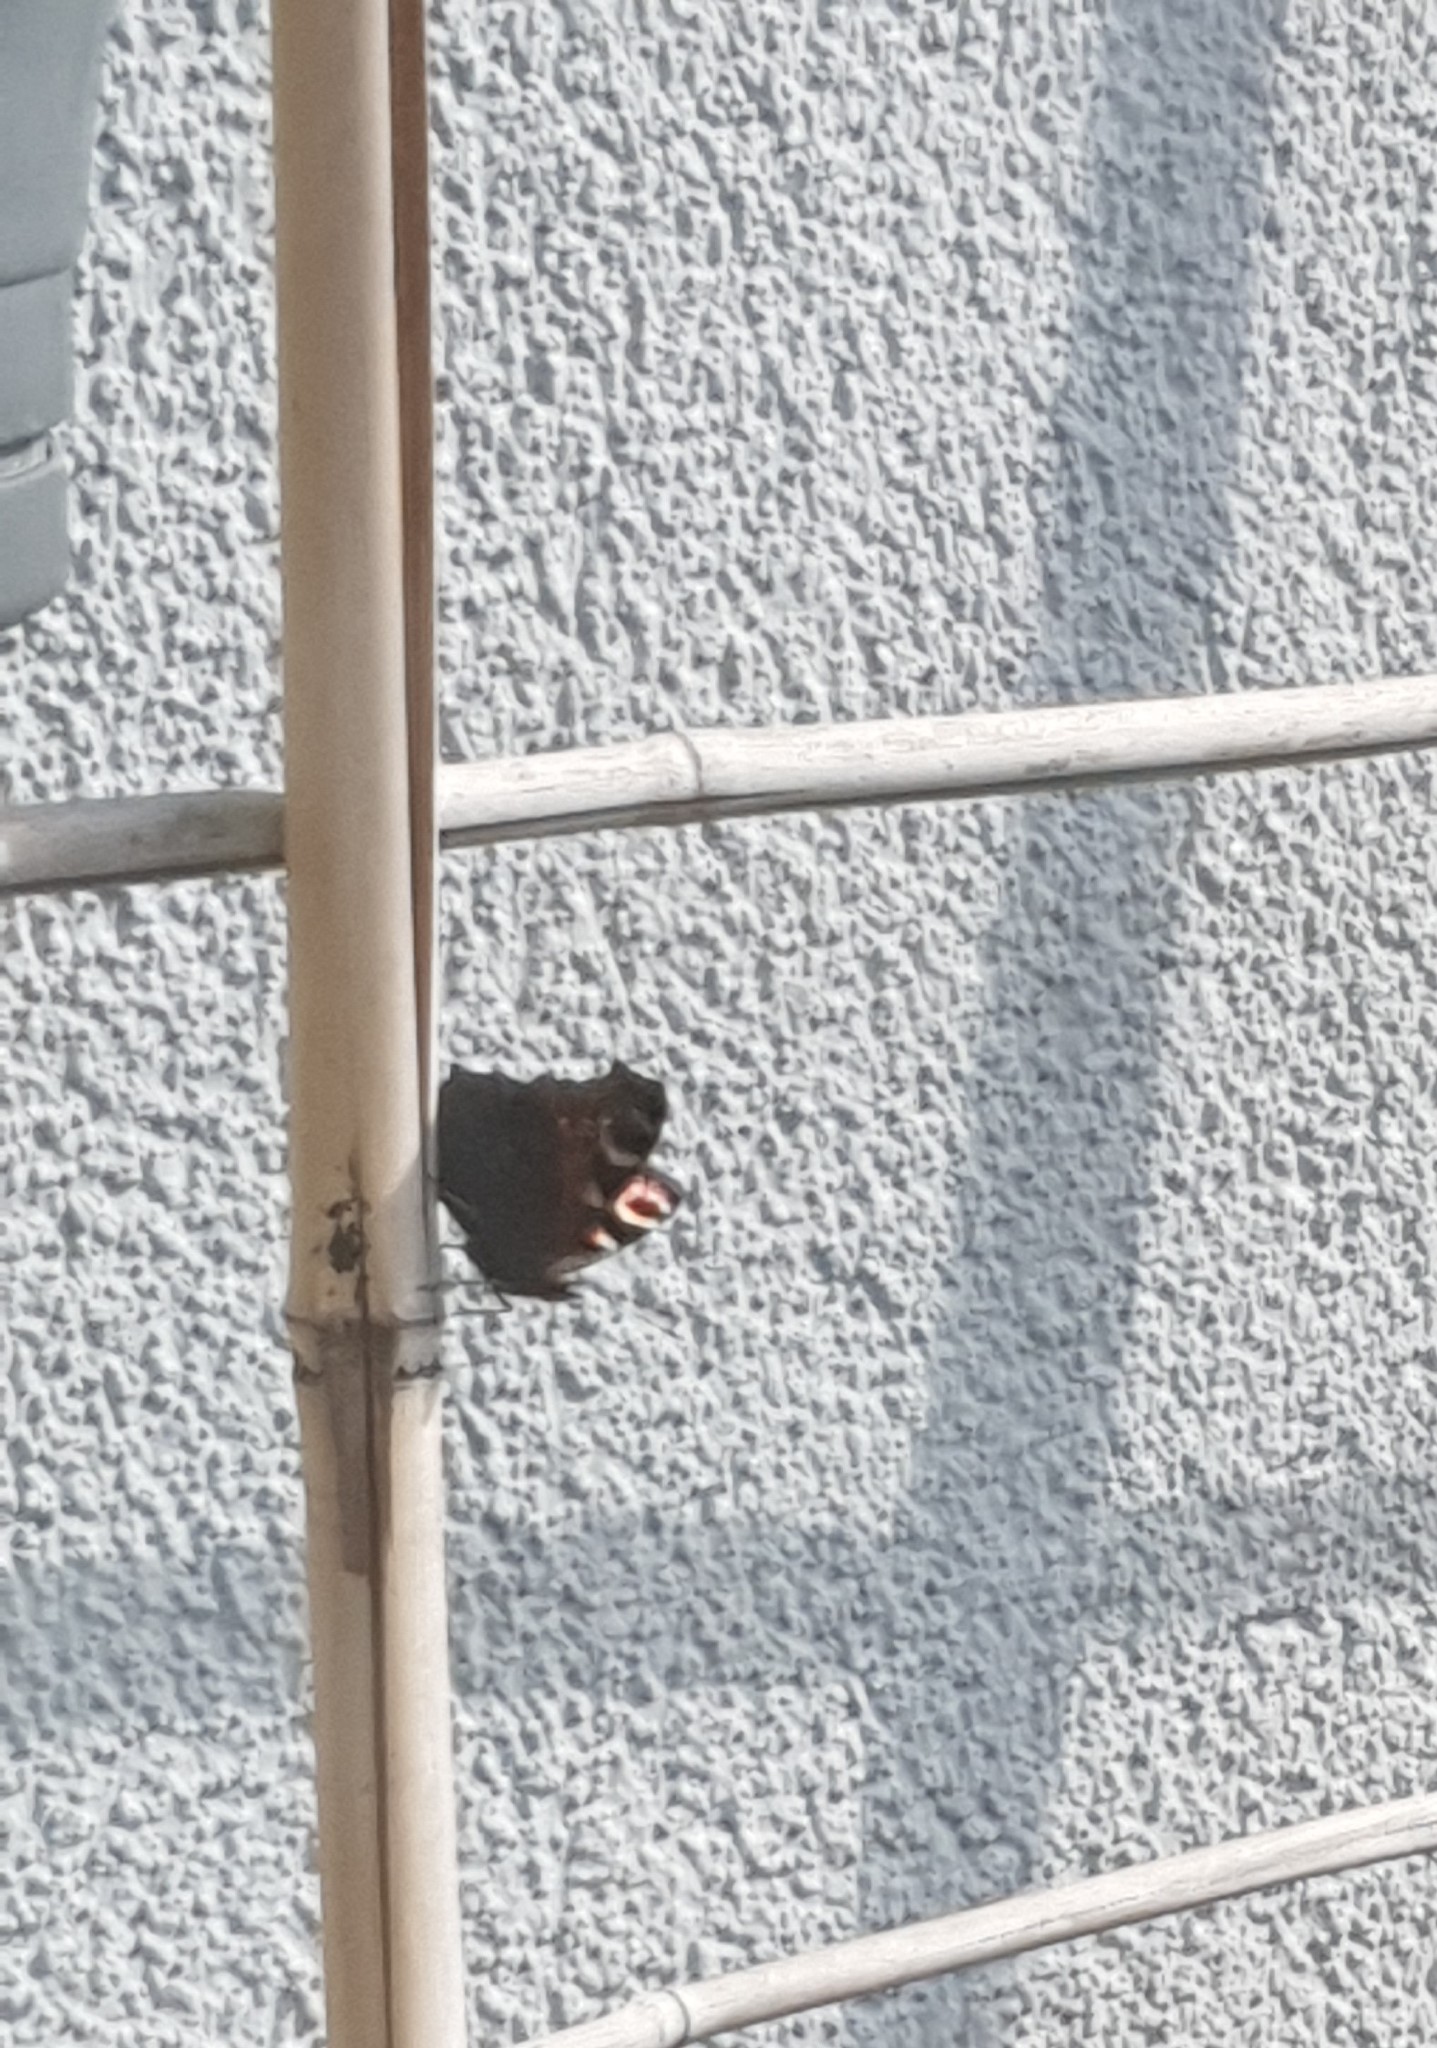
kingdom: Animalia
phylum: Arthropoda
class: Insecta
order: Lepidoptera
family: Nymphalidae
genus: Aglais
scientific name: Aglais io
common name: Peacock
